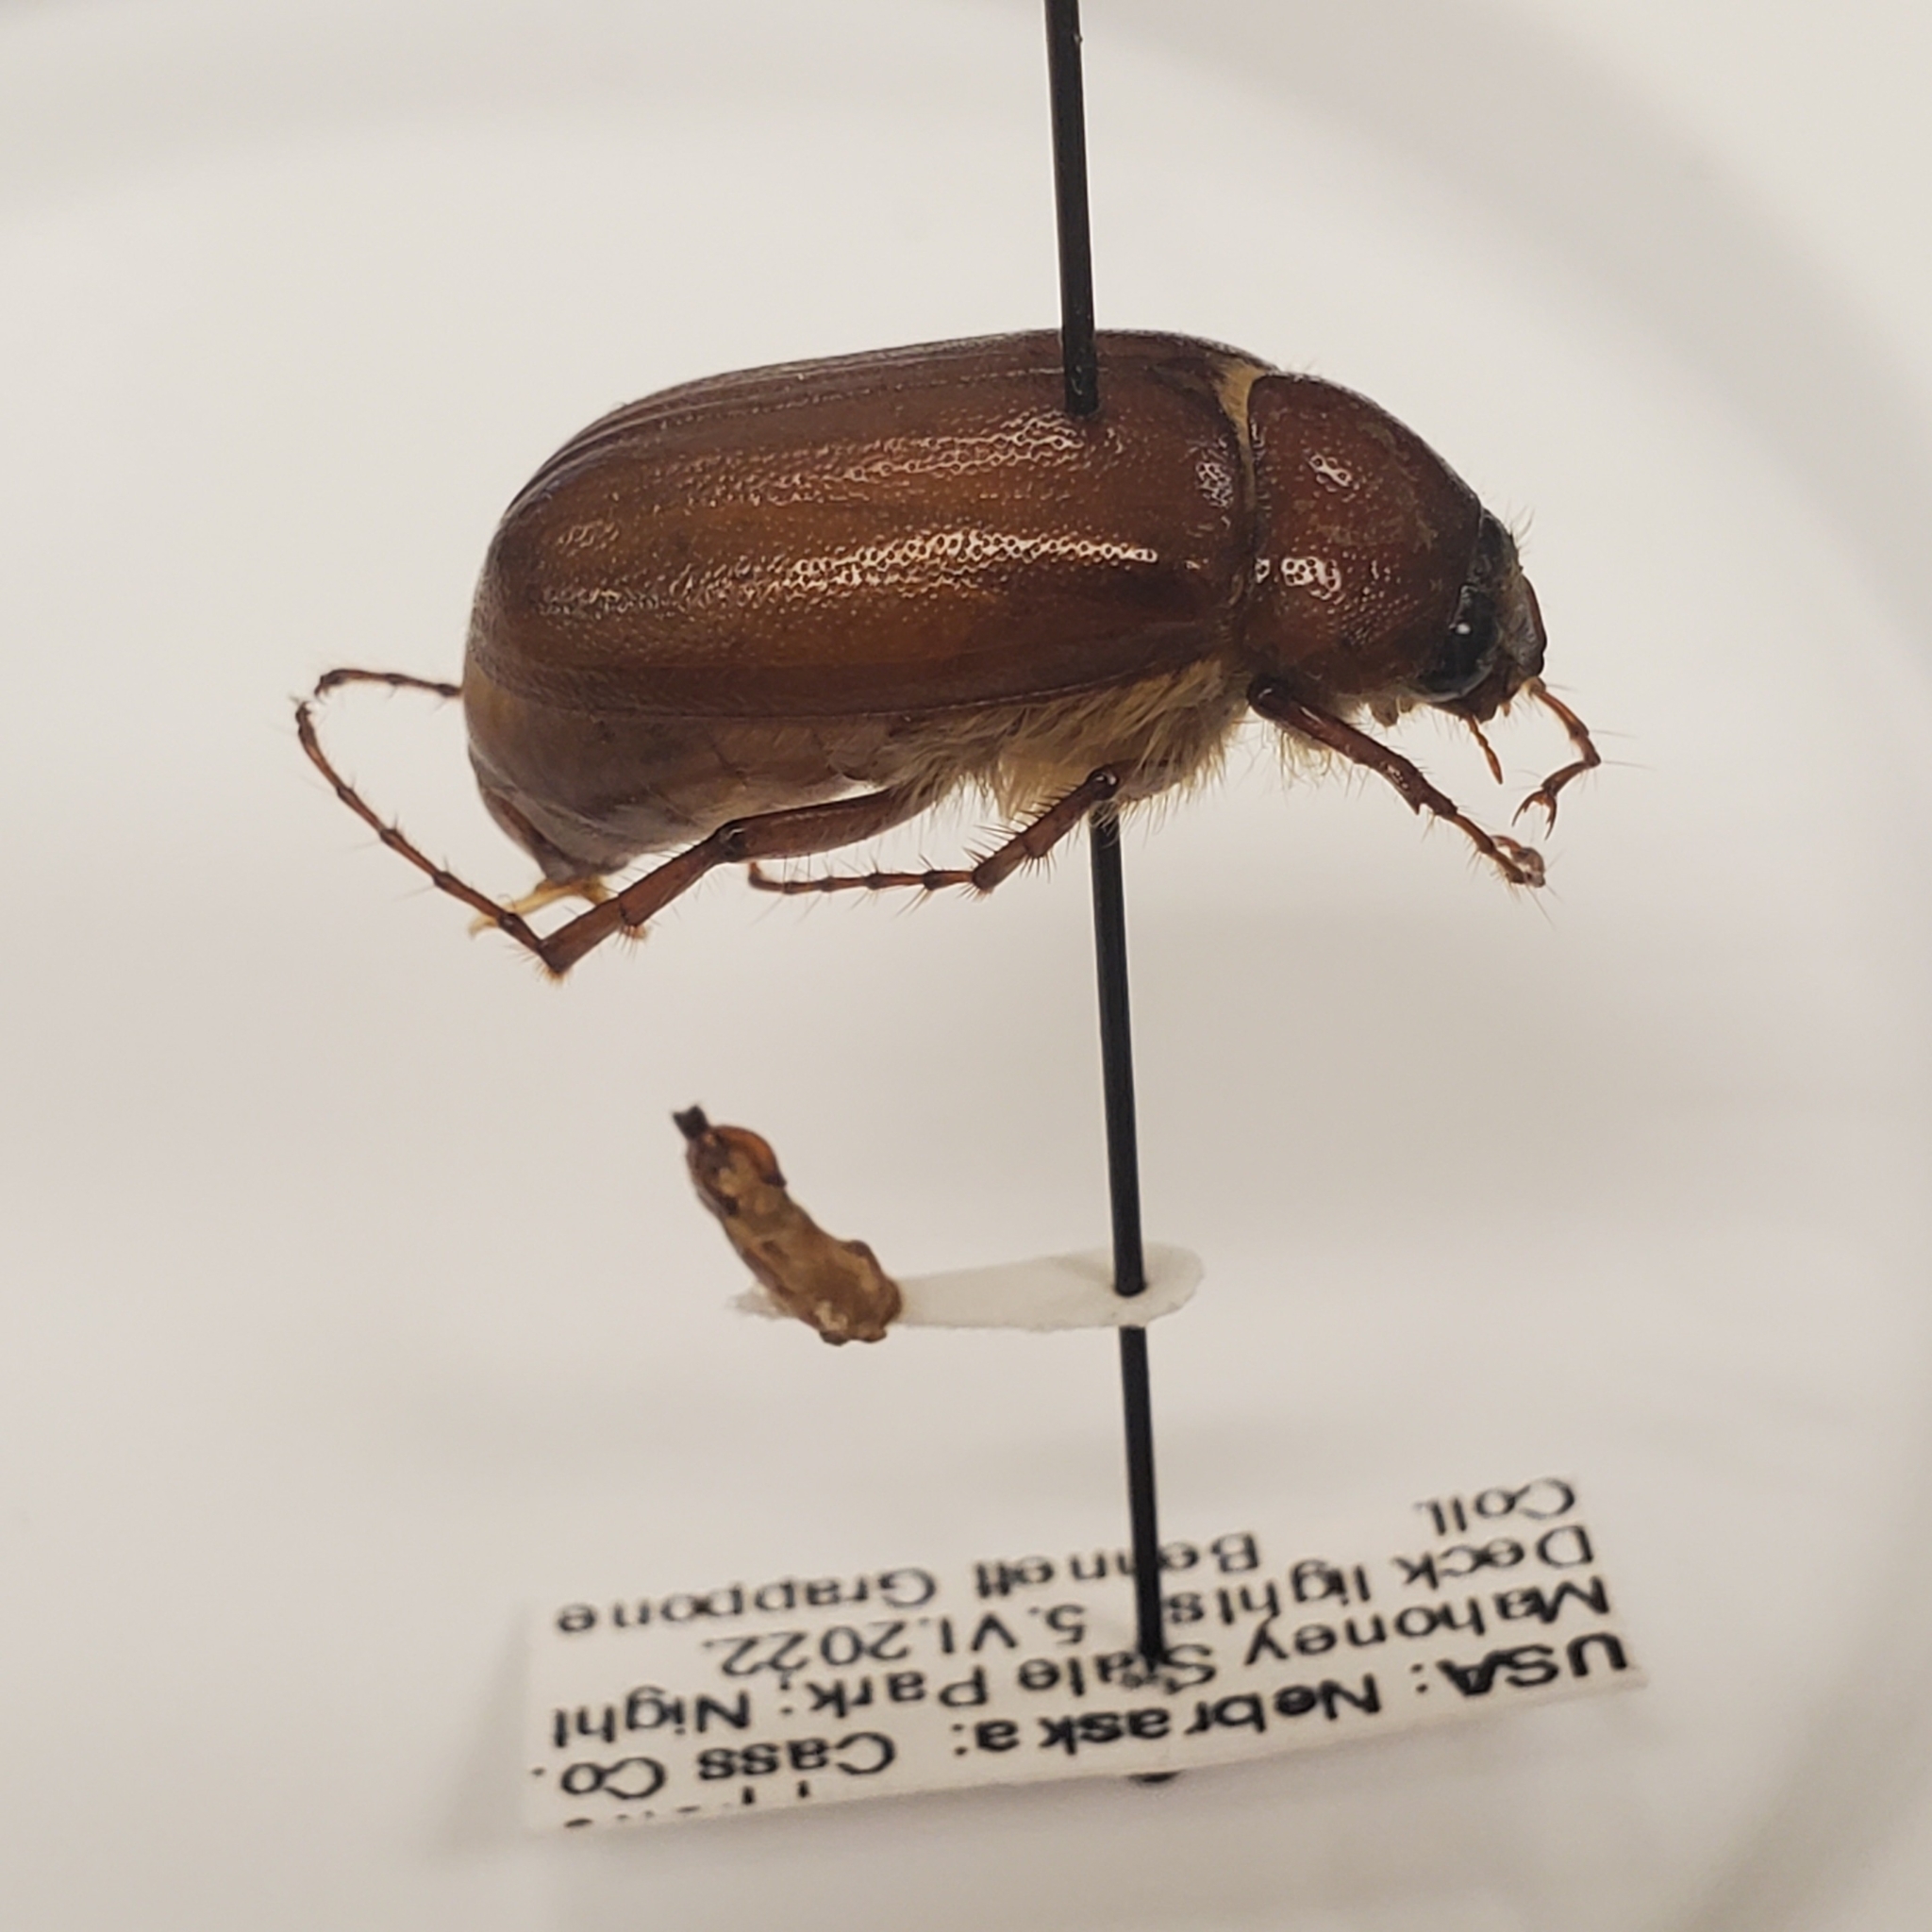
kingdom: Animalia
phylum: Arthropoda
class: Insecta
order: Coleoptera
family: Scarabaeidae
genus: Phyllophaga
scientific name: Phyllophaga futilis
